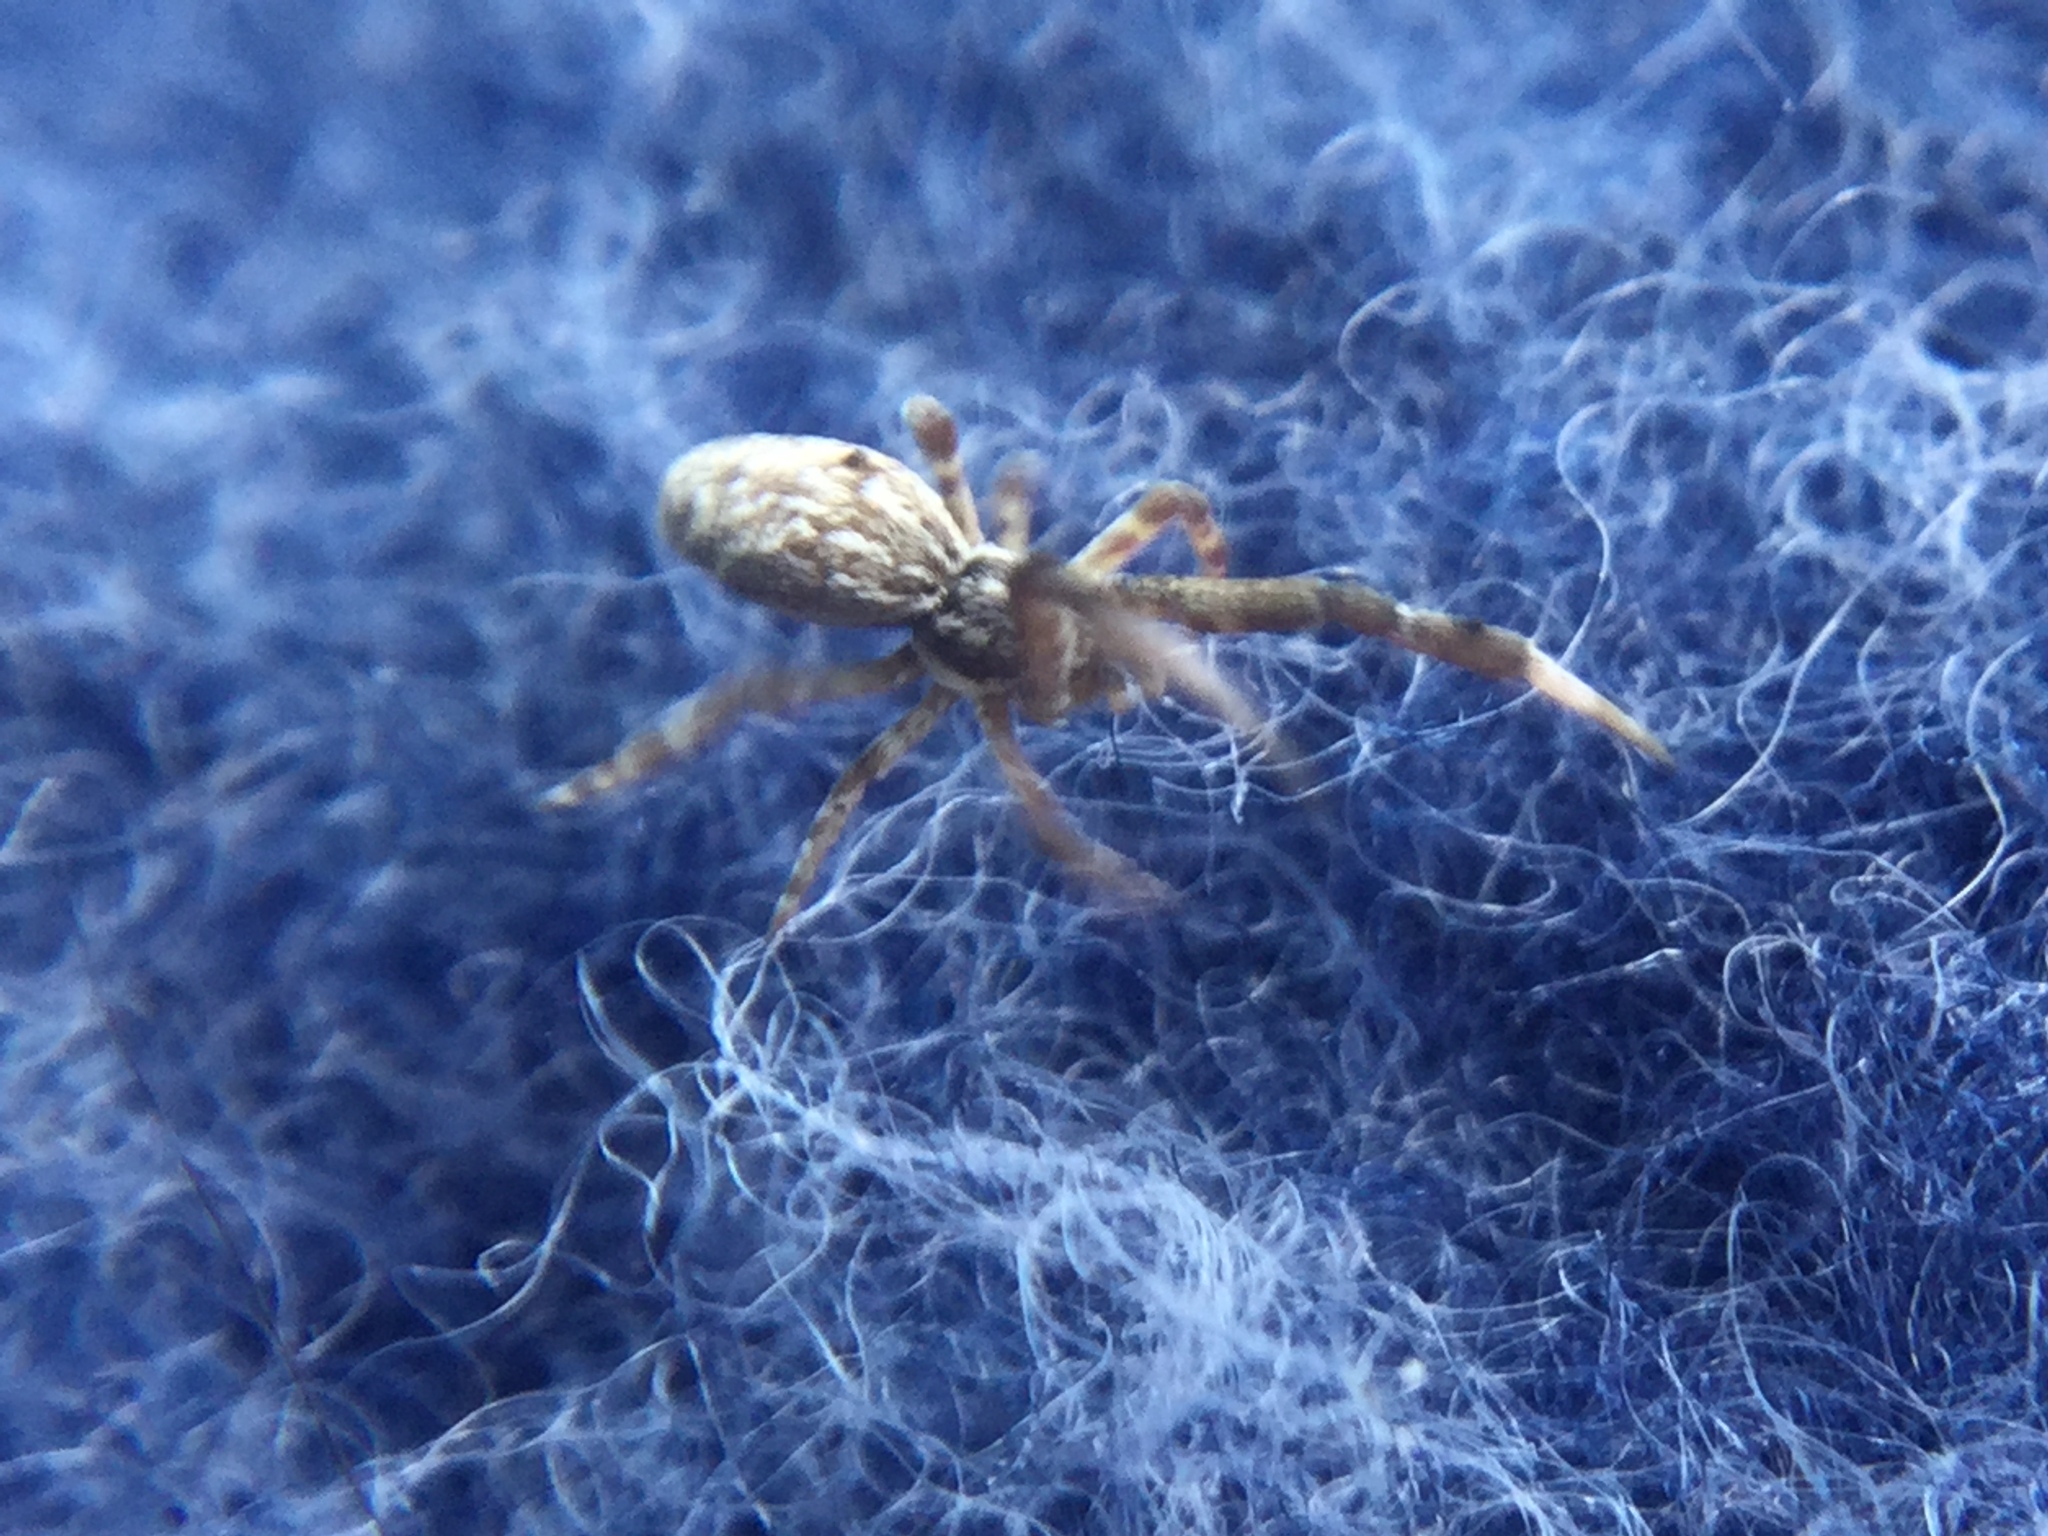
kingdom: Animalia
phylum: Arthropoda
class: Arachnida
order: Araneae
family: Uloboridae
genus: Uloborus
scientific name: Uloborus glomosus
